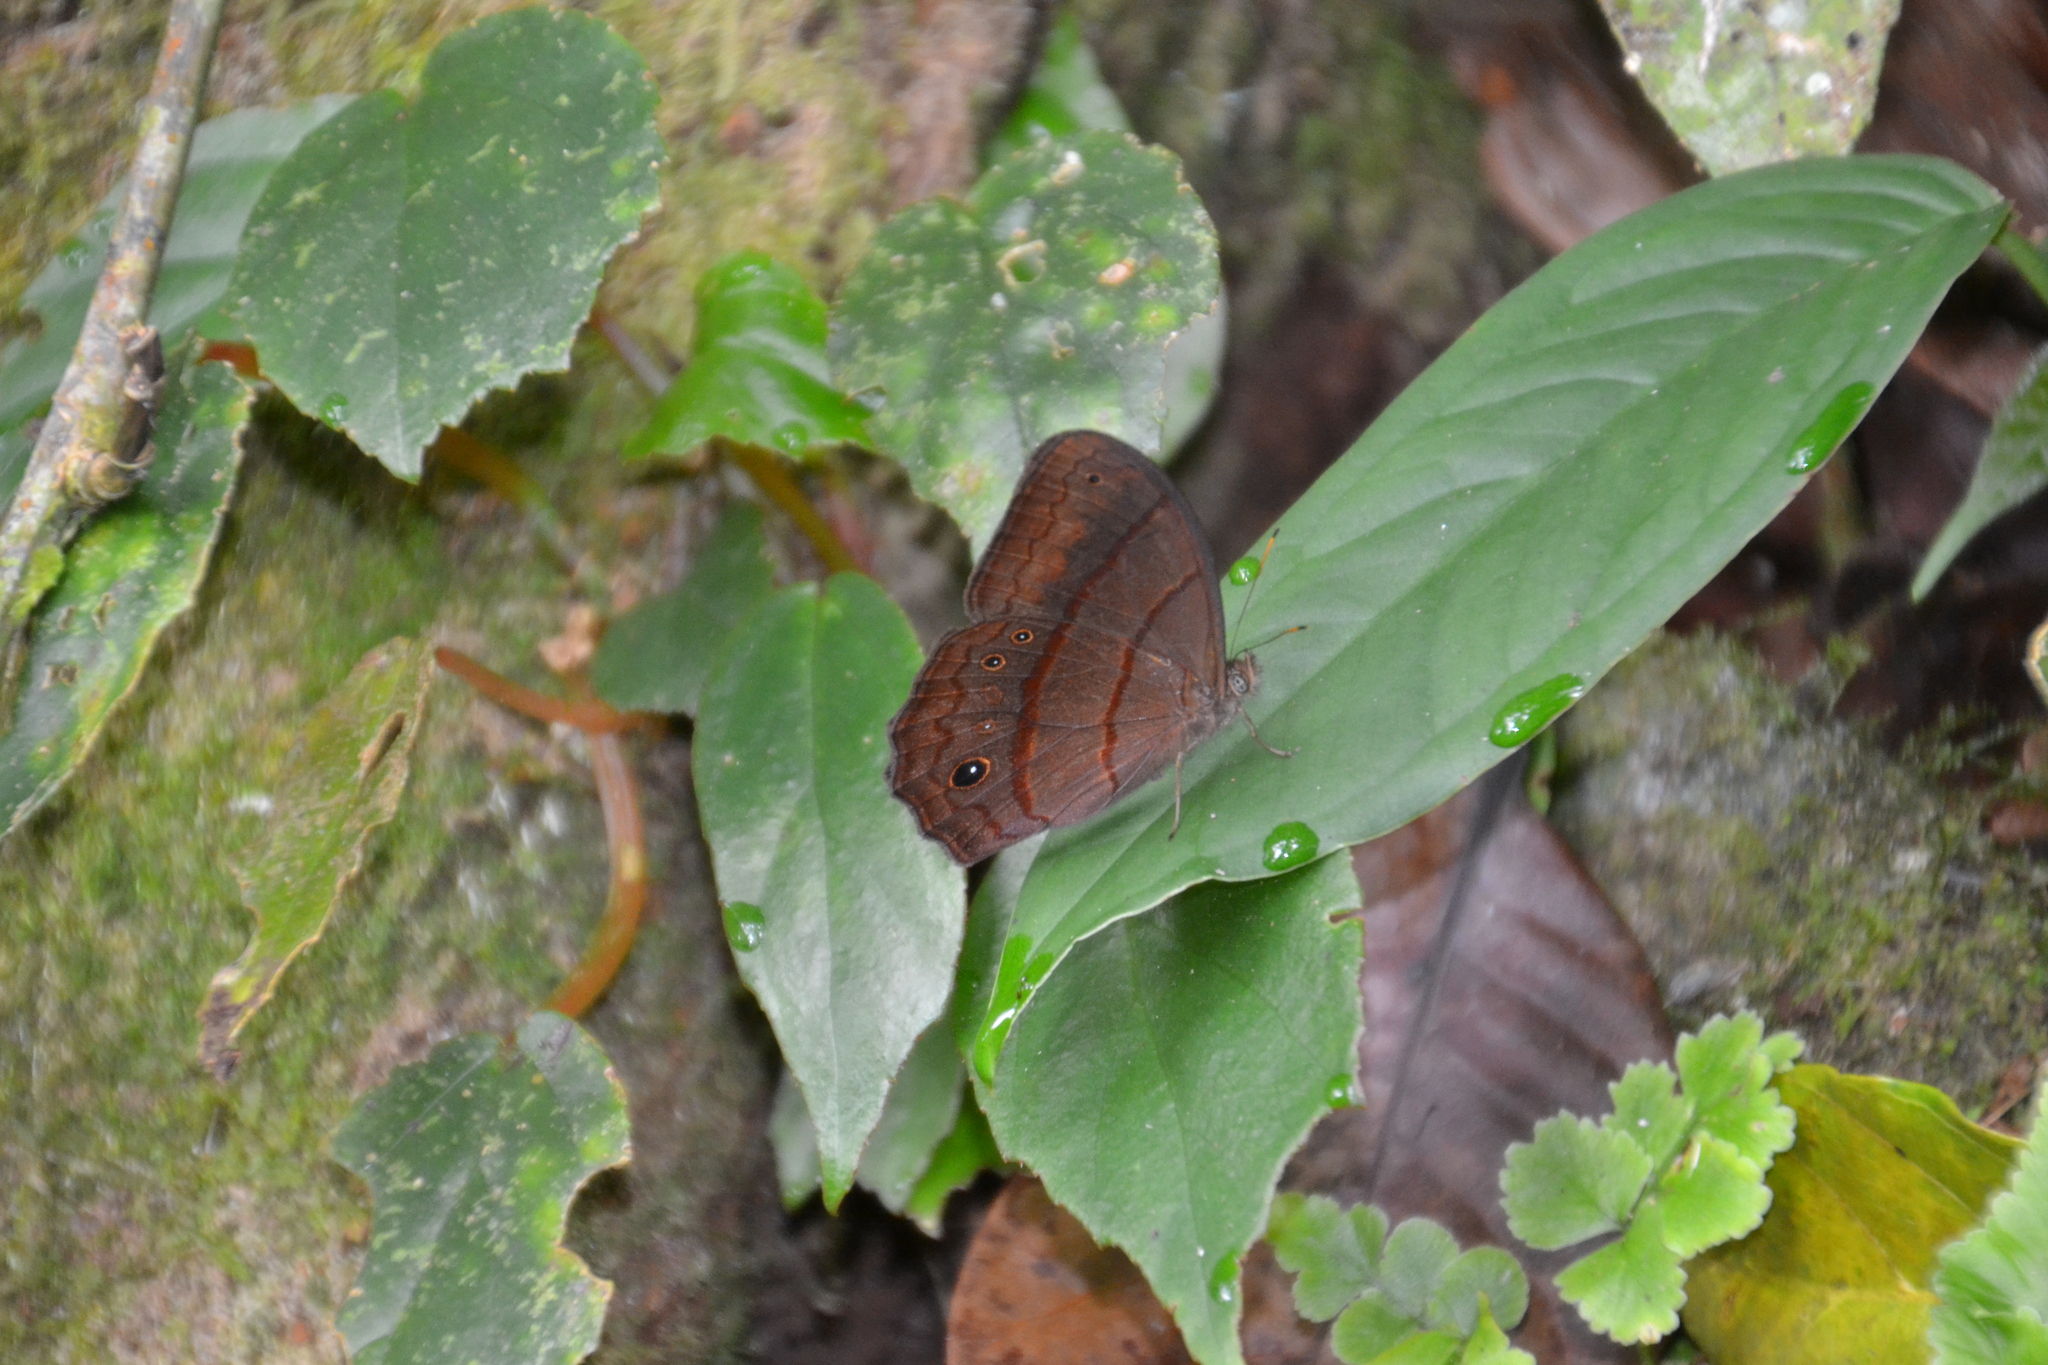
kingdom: Animalia
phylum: Arthropoda
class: Insecta
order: Lepidoptera
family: Nymphalidae
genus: Satyrotaygetis
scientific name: Satyrotaygetis satyrina
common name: Wide-bordered satyr
